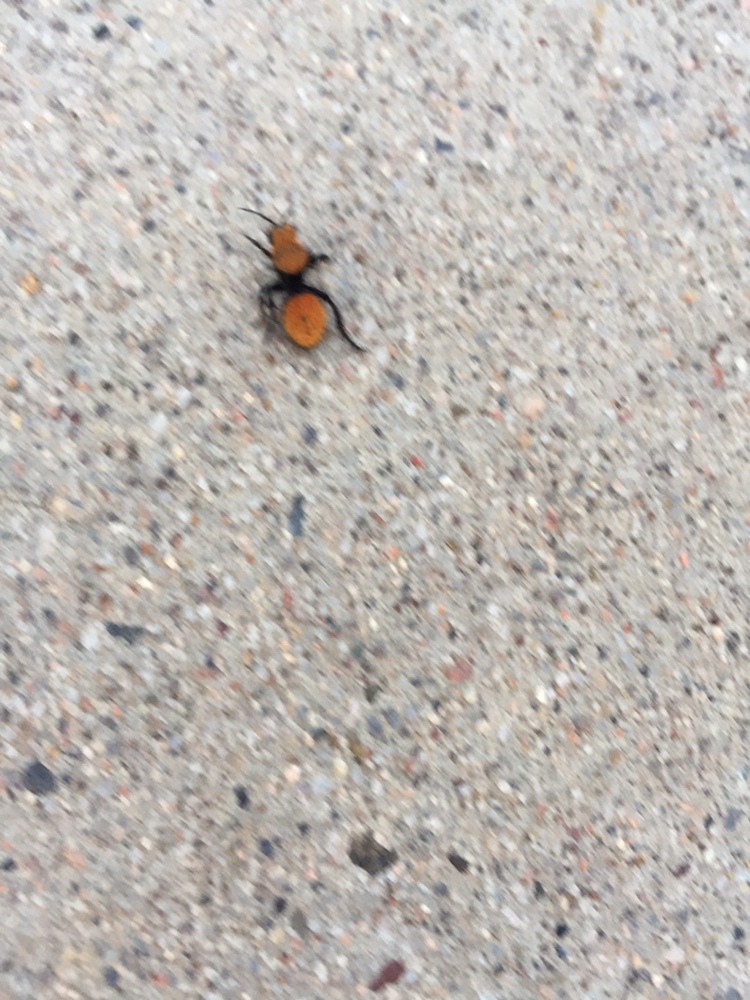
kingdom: Animalia
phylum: Arthropoda
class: Insecta
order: Hymenoptera
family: Mutillidae
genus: Dasymutilla
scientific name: Dasymutilla vestita
